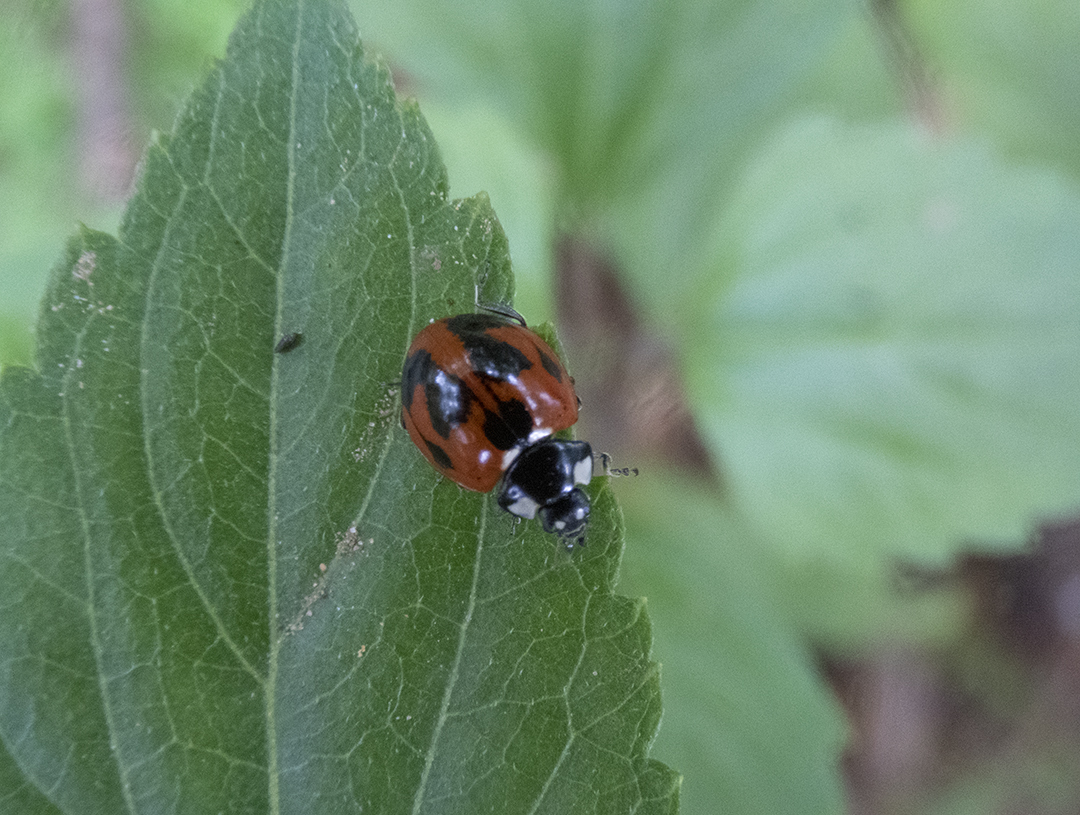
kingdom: Animalia
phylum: Arthropoda
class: Insecta
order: Coleoptera
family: Coccinellidae
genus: Coccinella
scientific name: Coccinella septempunctata
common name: Sevenspotted lady beetle
